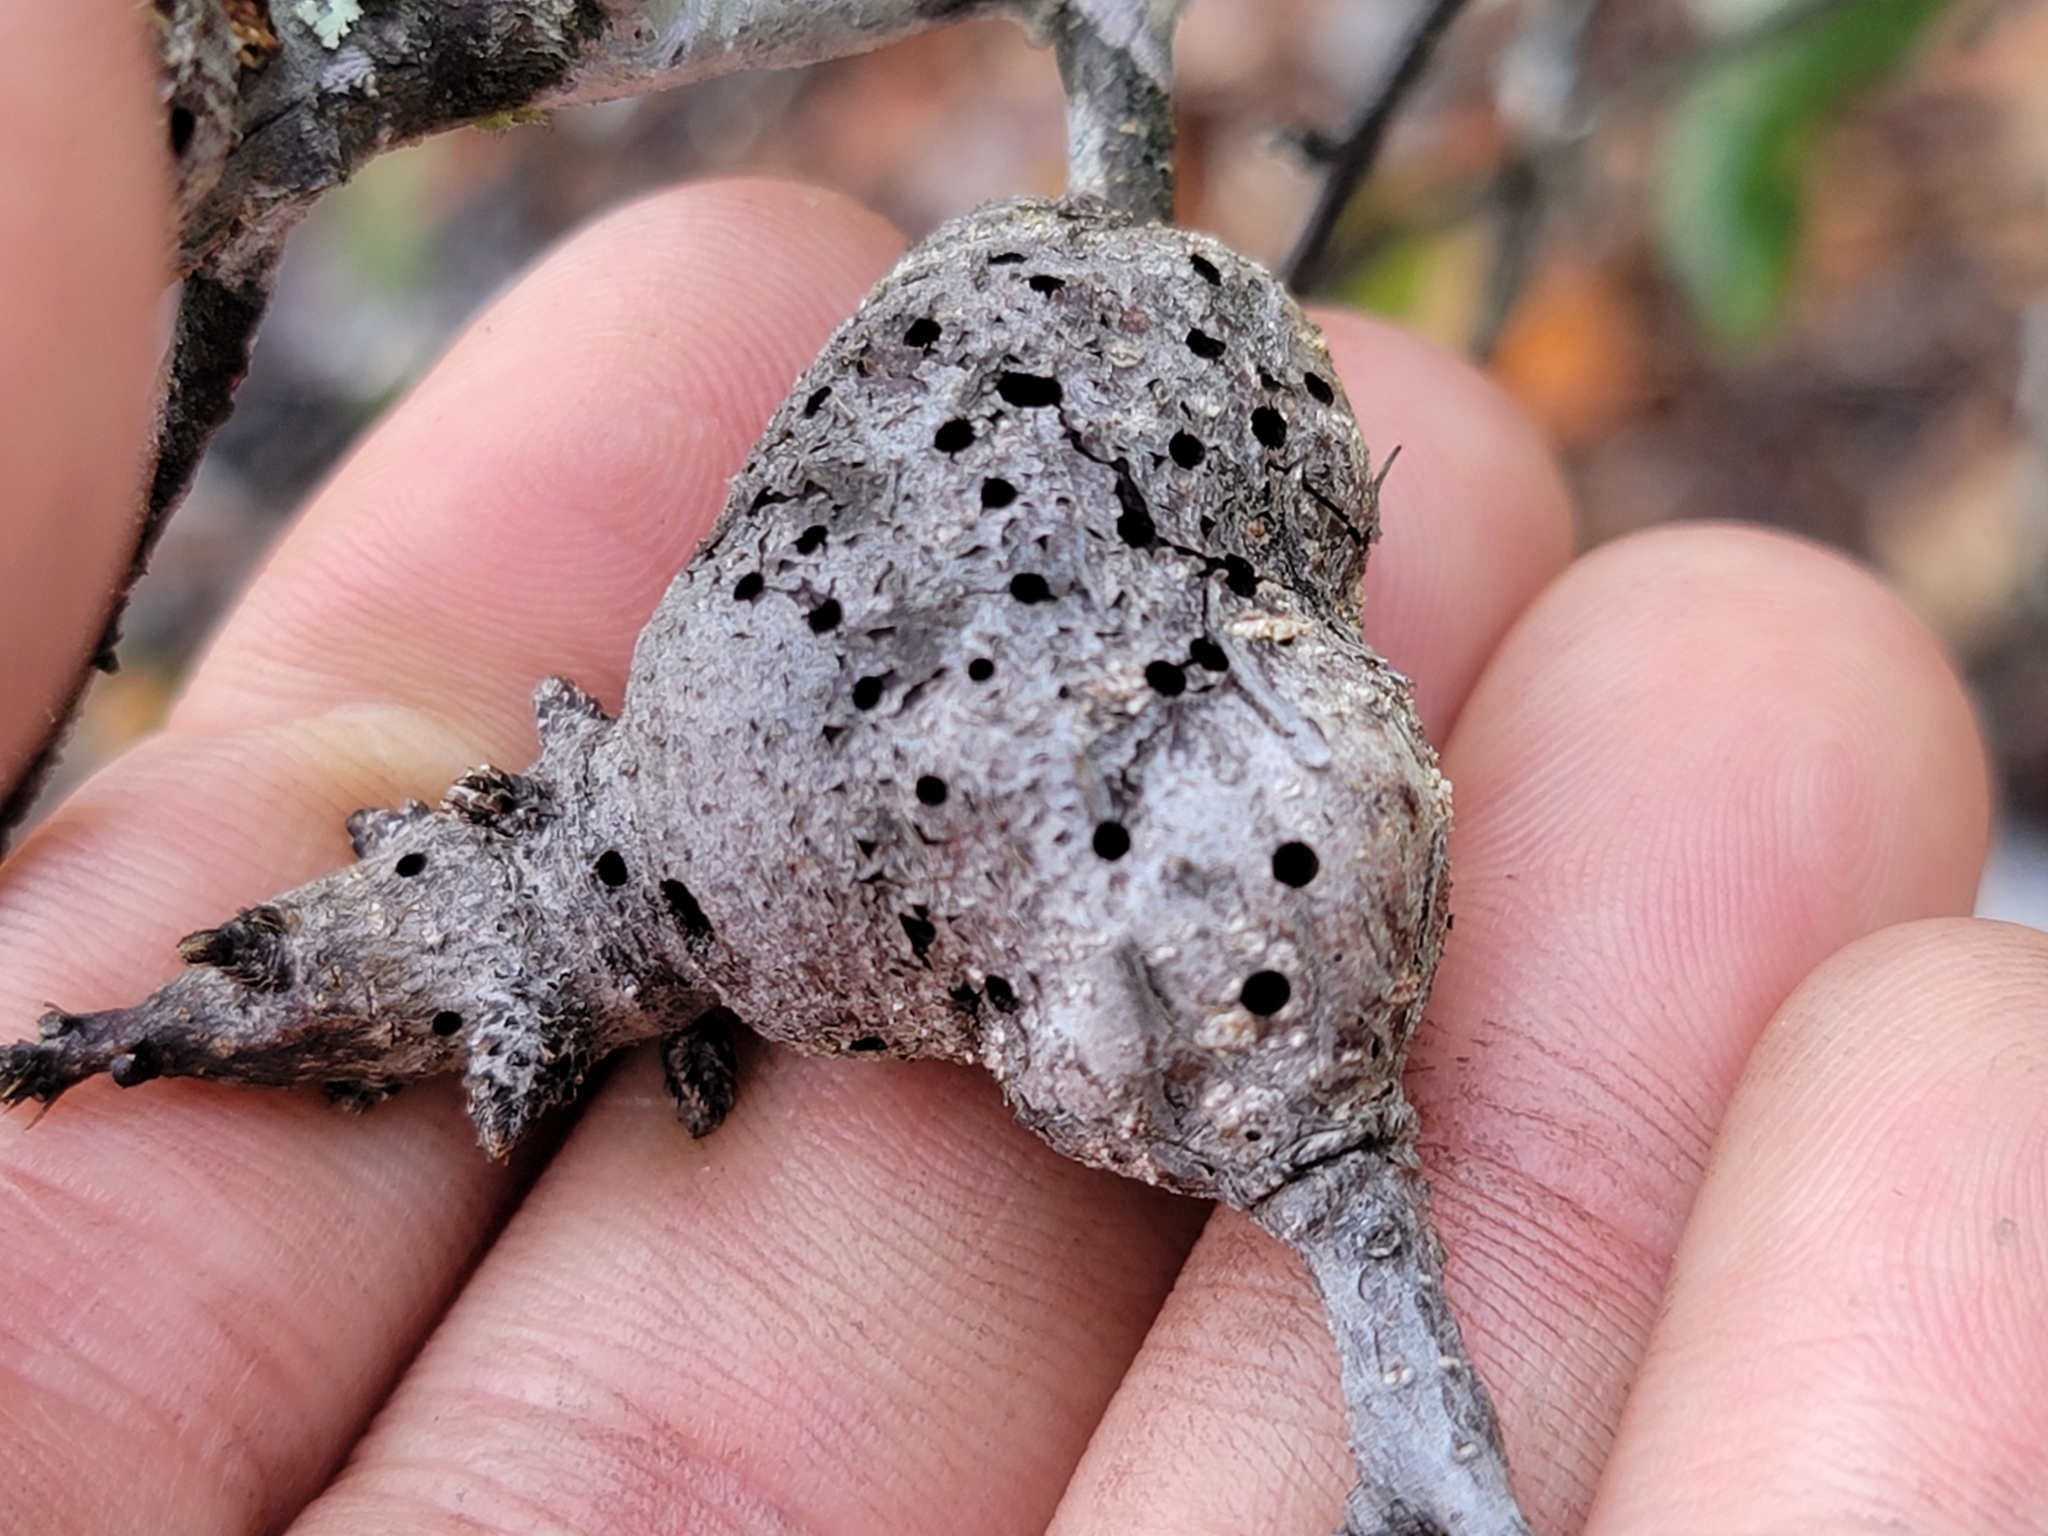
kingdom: Animalia
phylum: Arthropoda
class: Insecta
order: Hymenoptera
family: Cynipidae
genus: Callirhytis
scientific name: Callirhytis
